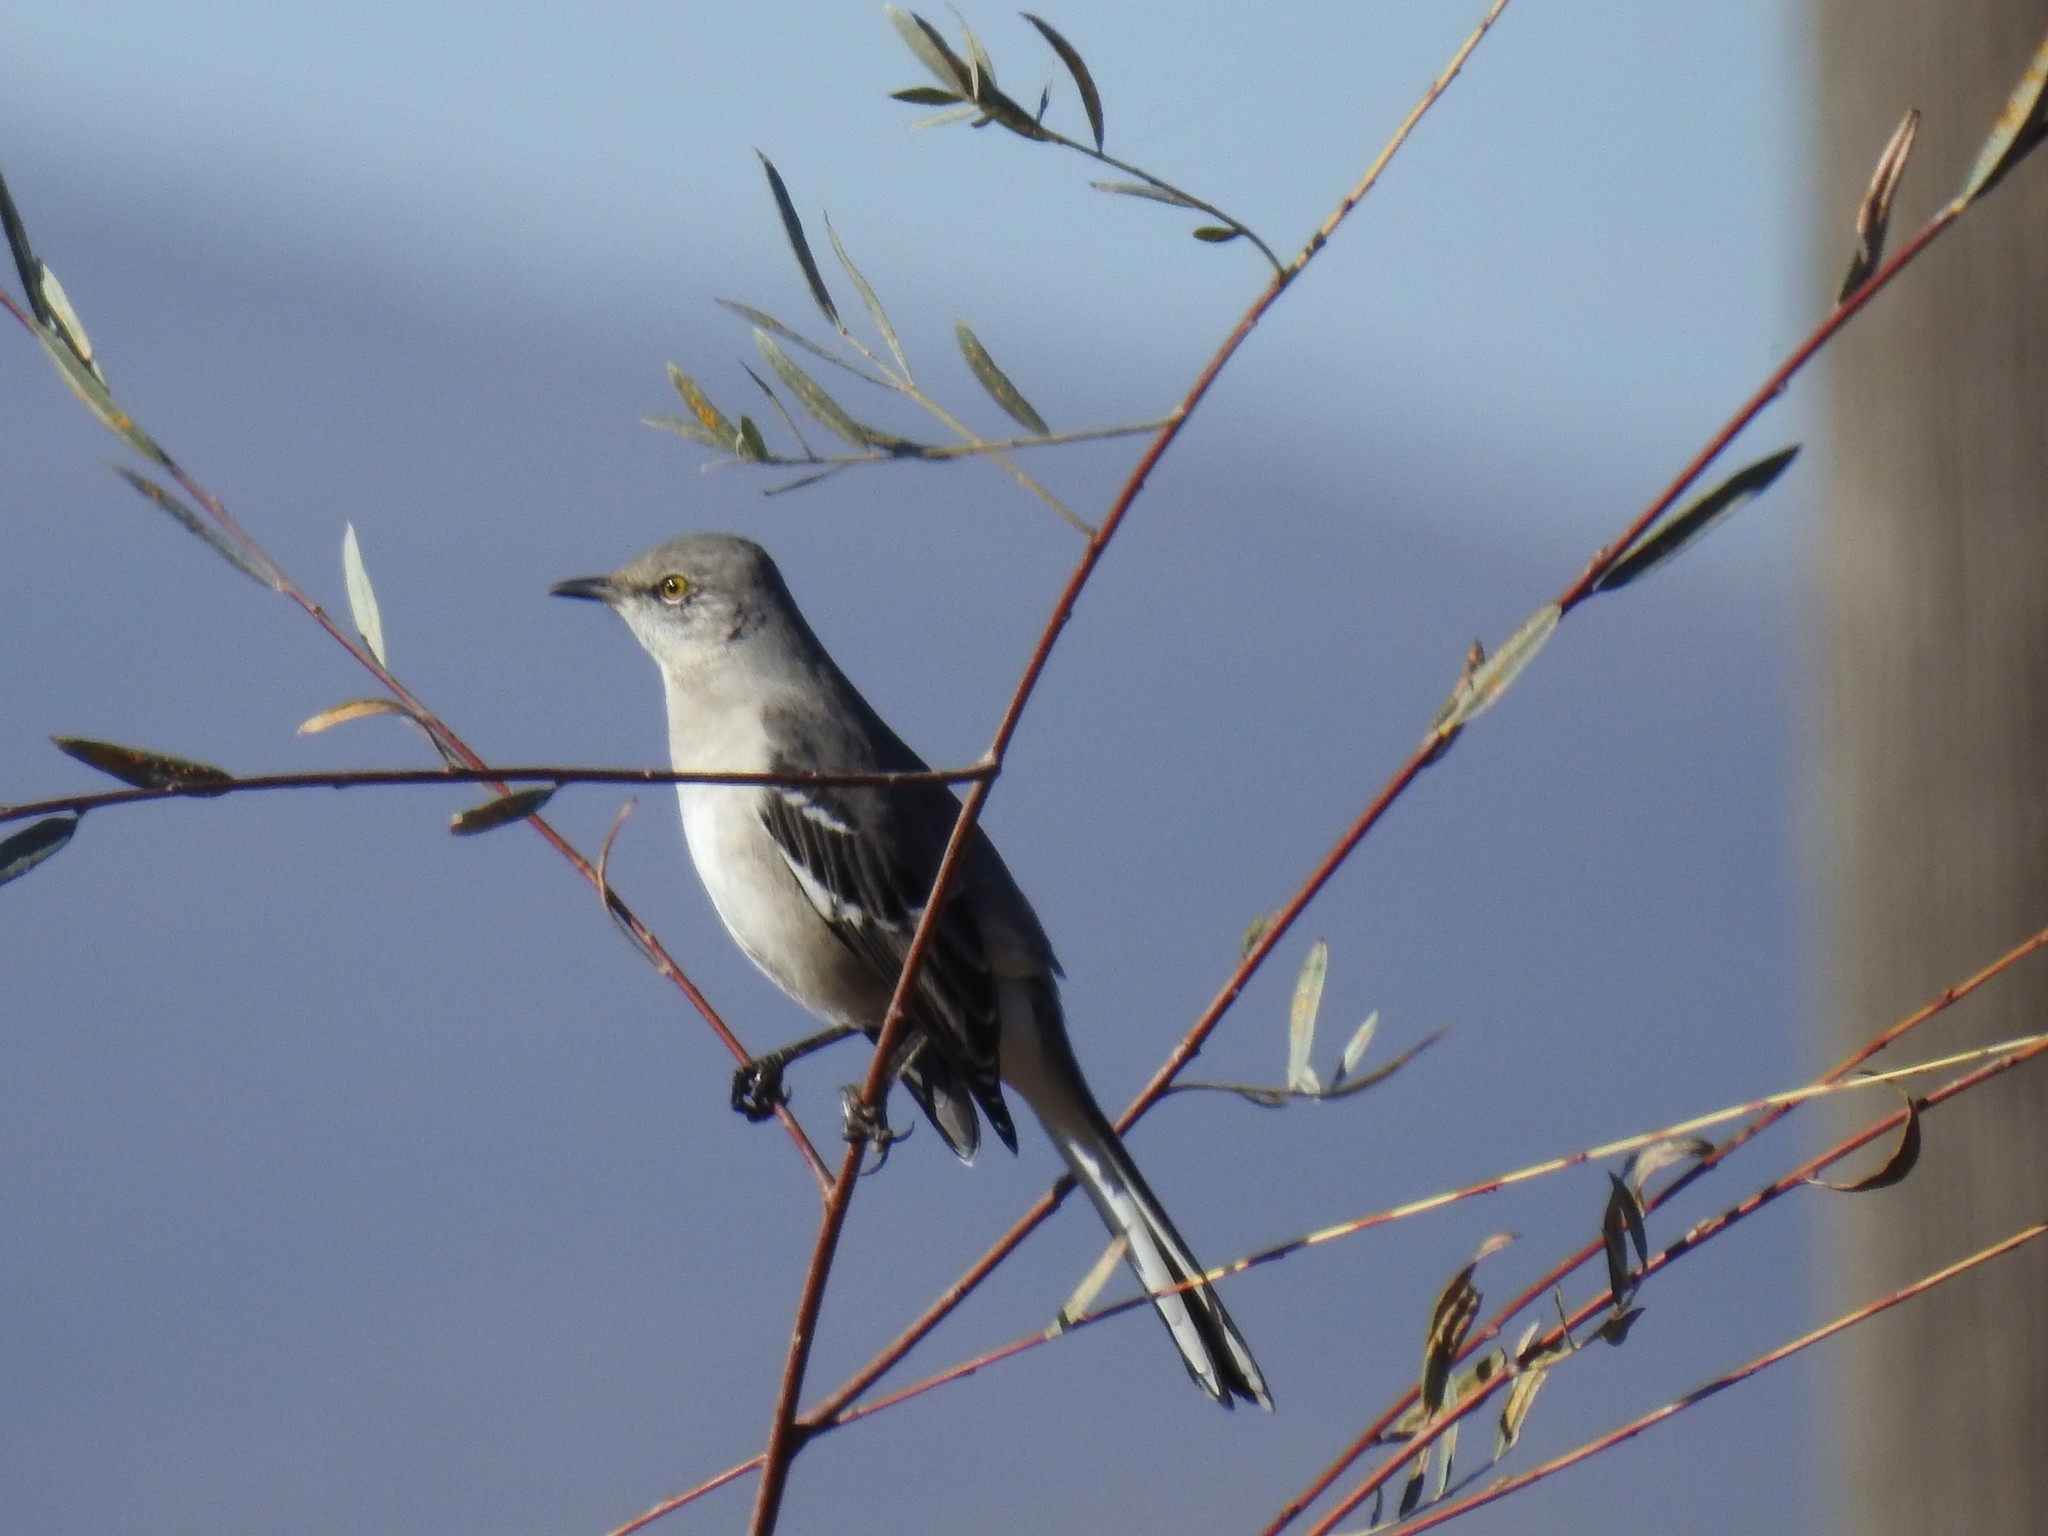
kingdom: Animalia
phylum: Chordata
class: Aves
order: Passeriformes
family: Mimidae
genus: Mimus
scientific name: Mimus polyglottos
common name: Northern mockingbird
